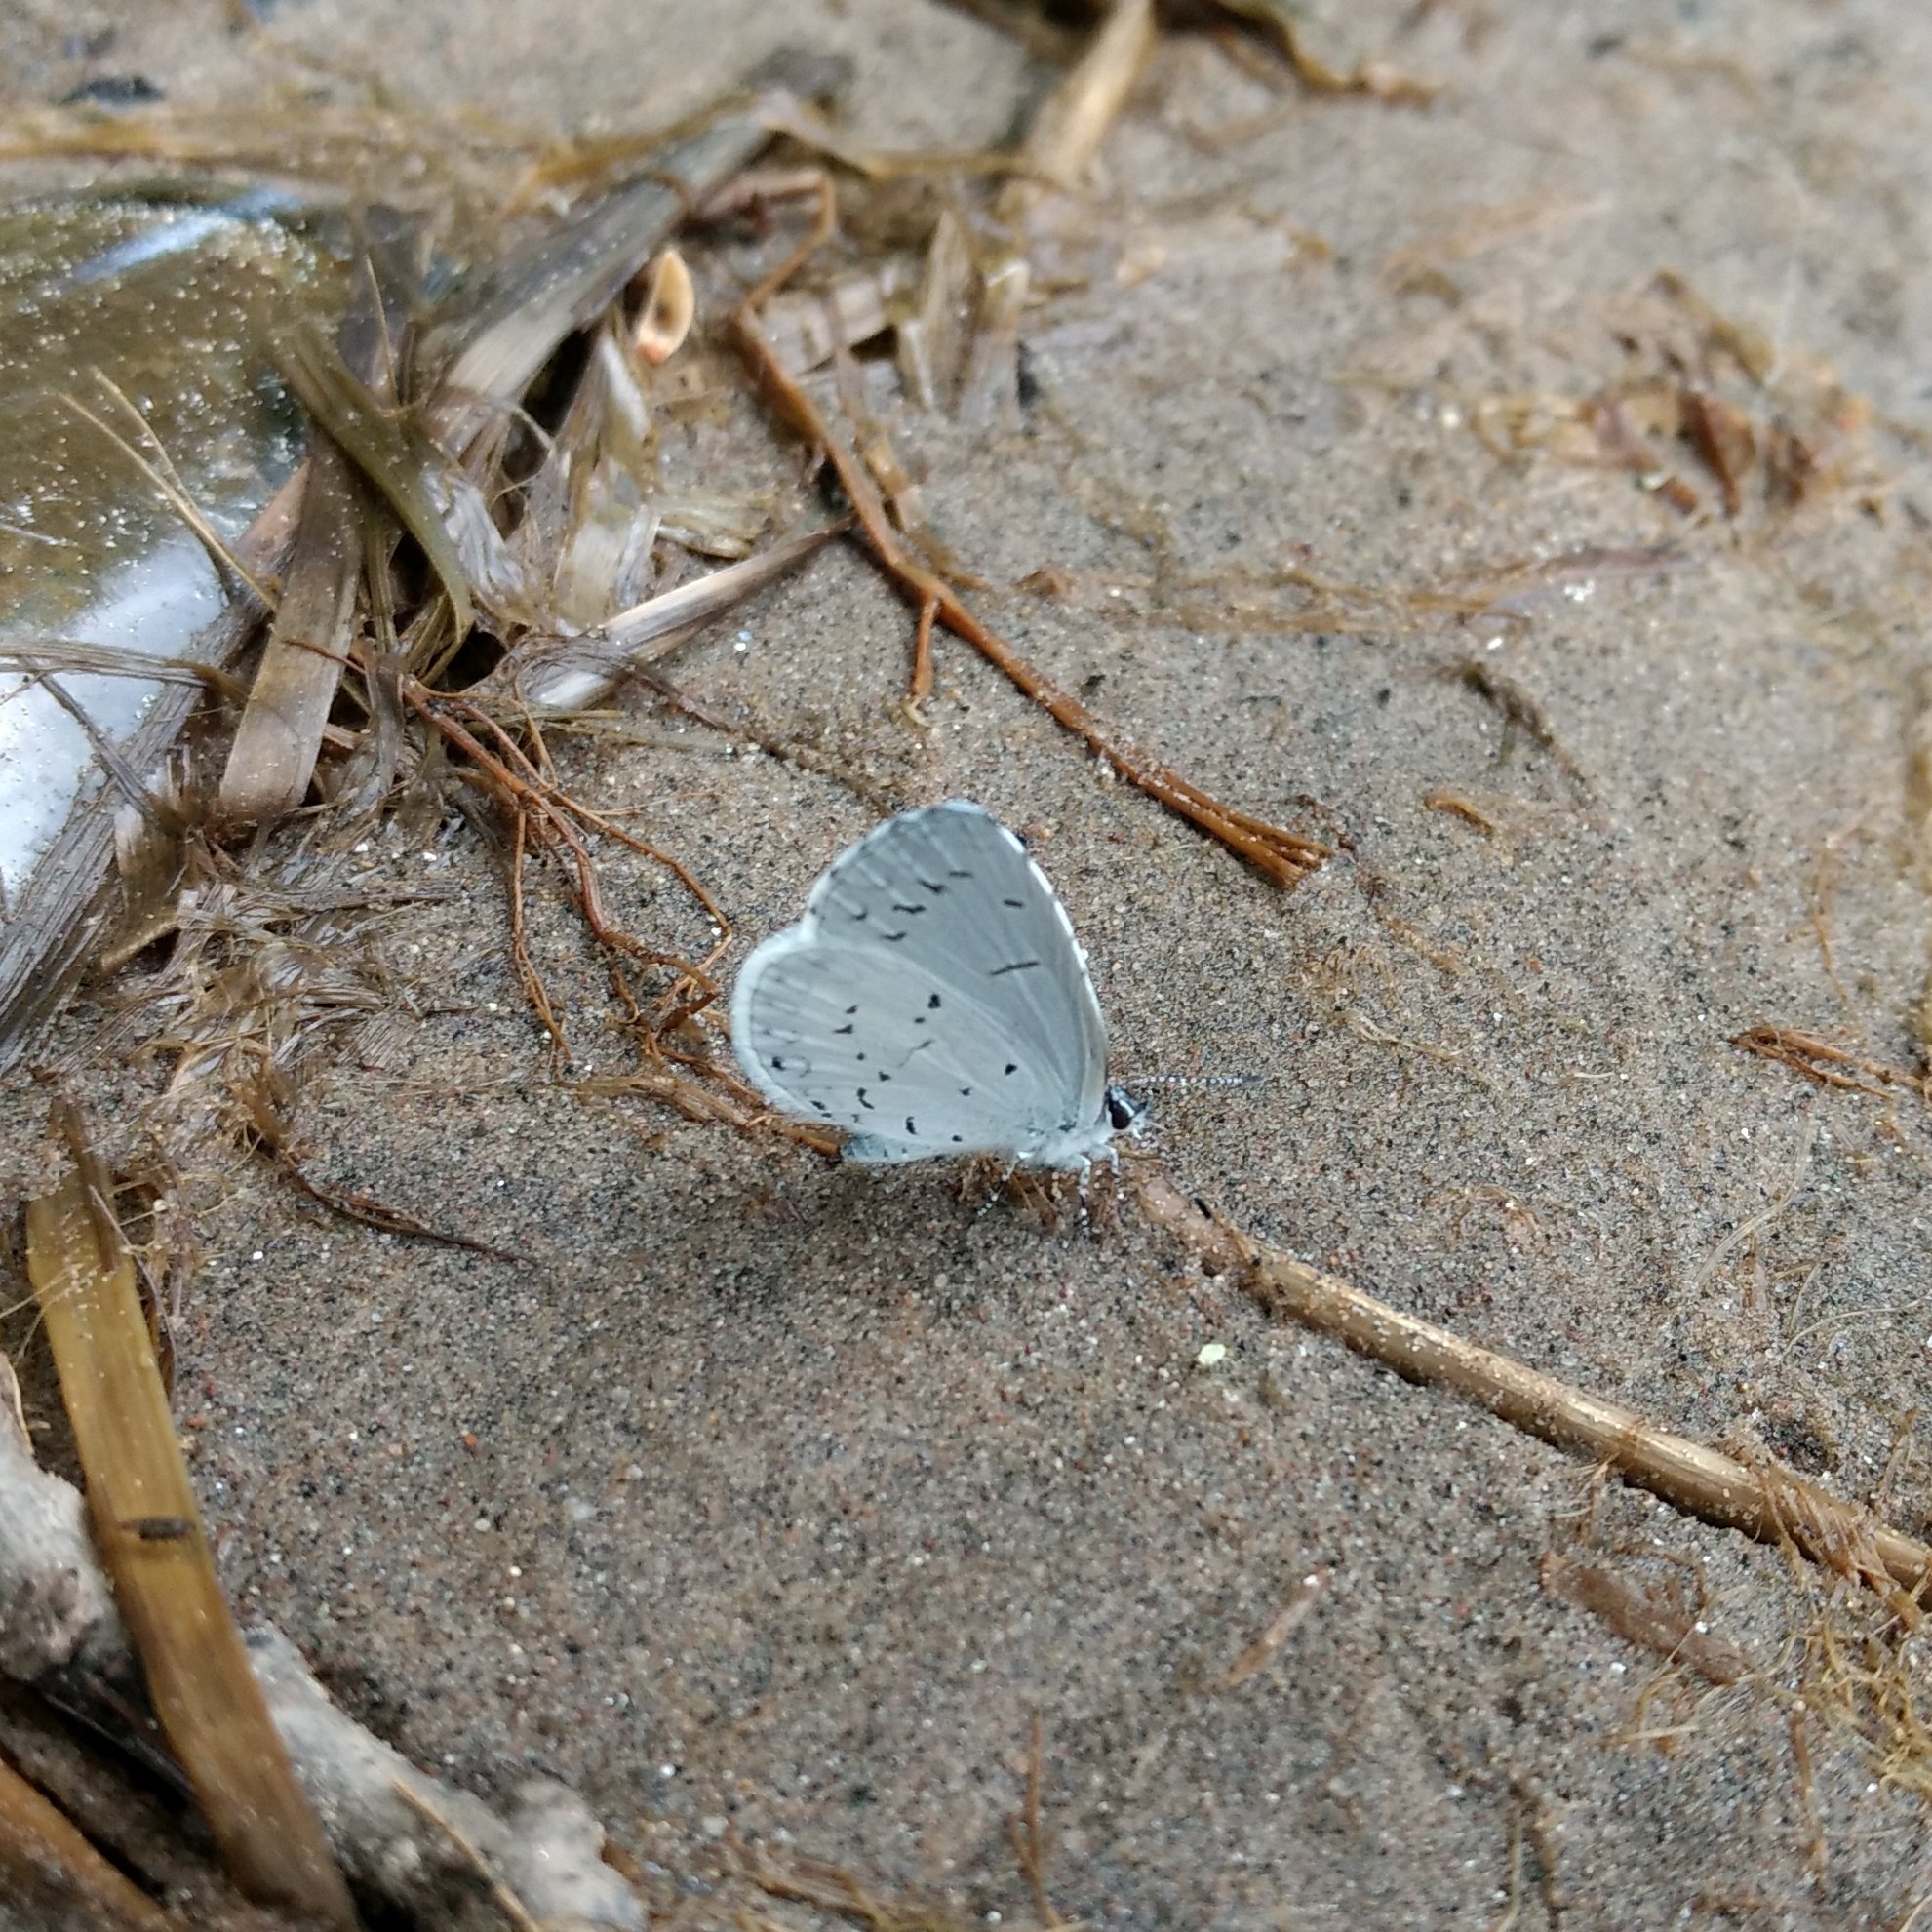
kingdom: Animalia
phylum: Arthropoda
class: Insecta
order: Lepidoptera
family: Lycaenidae
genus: Cyaniris
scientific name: Cyaniris neglecta
